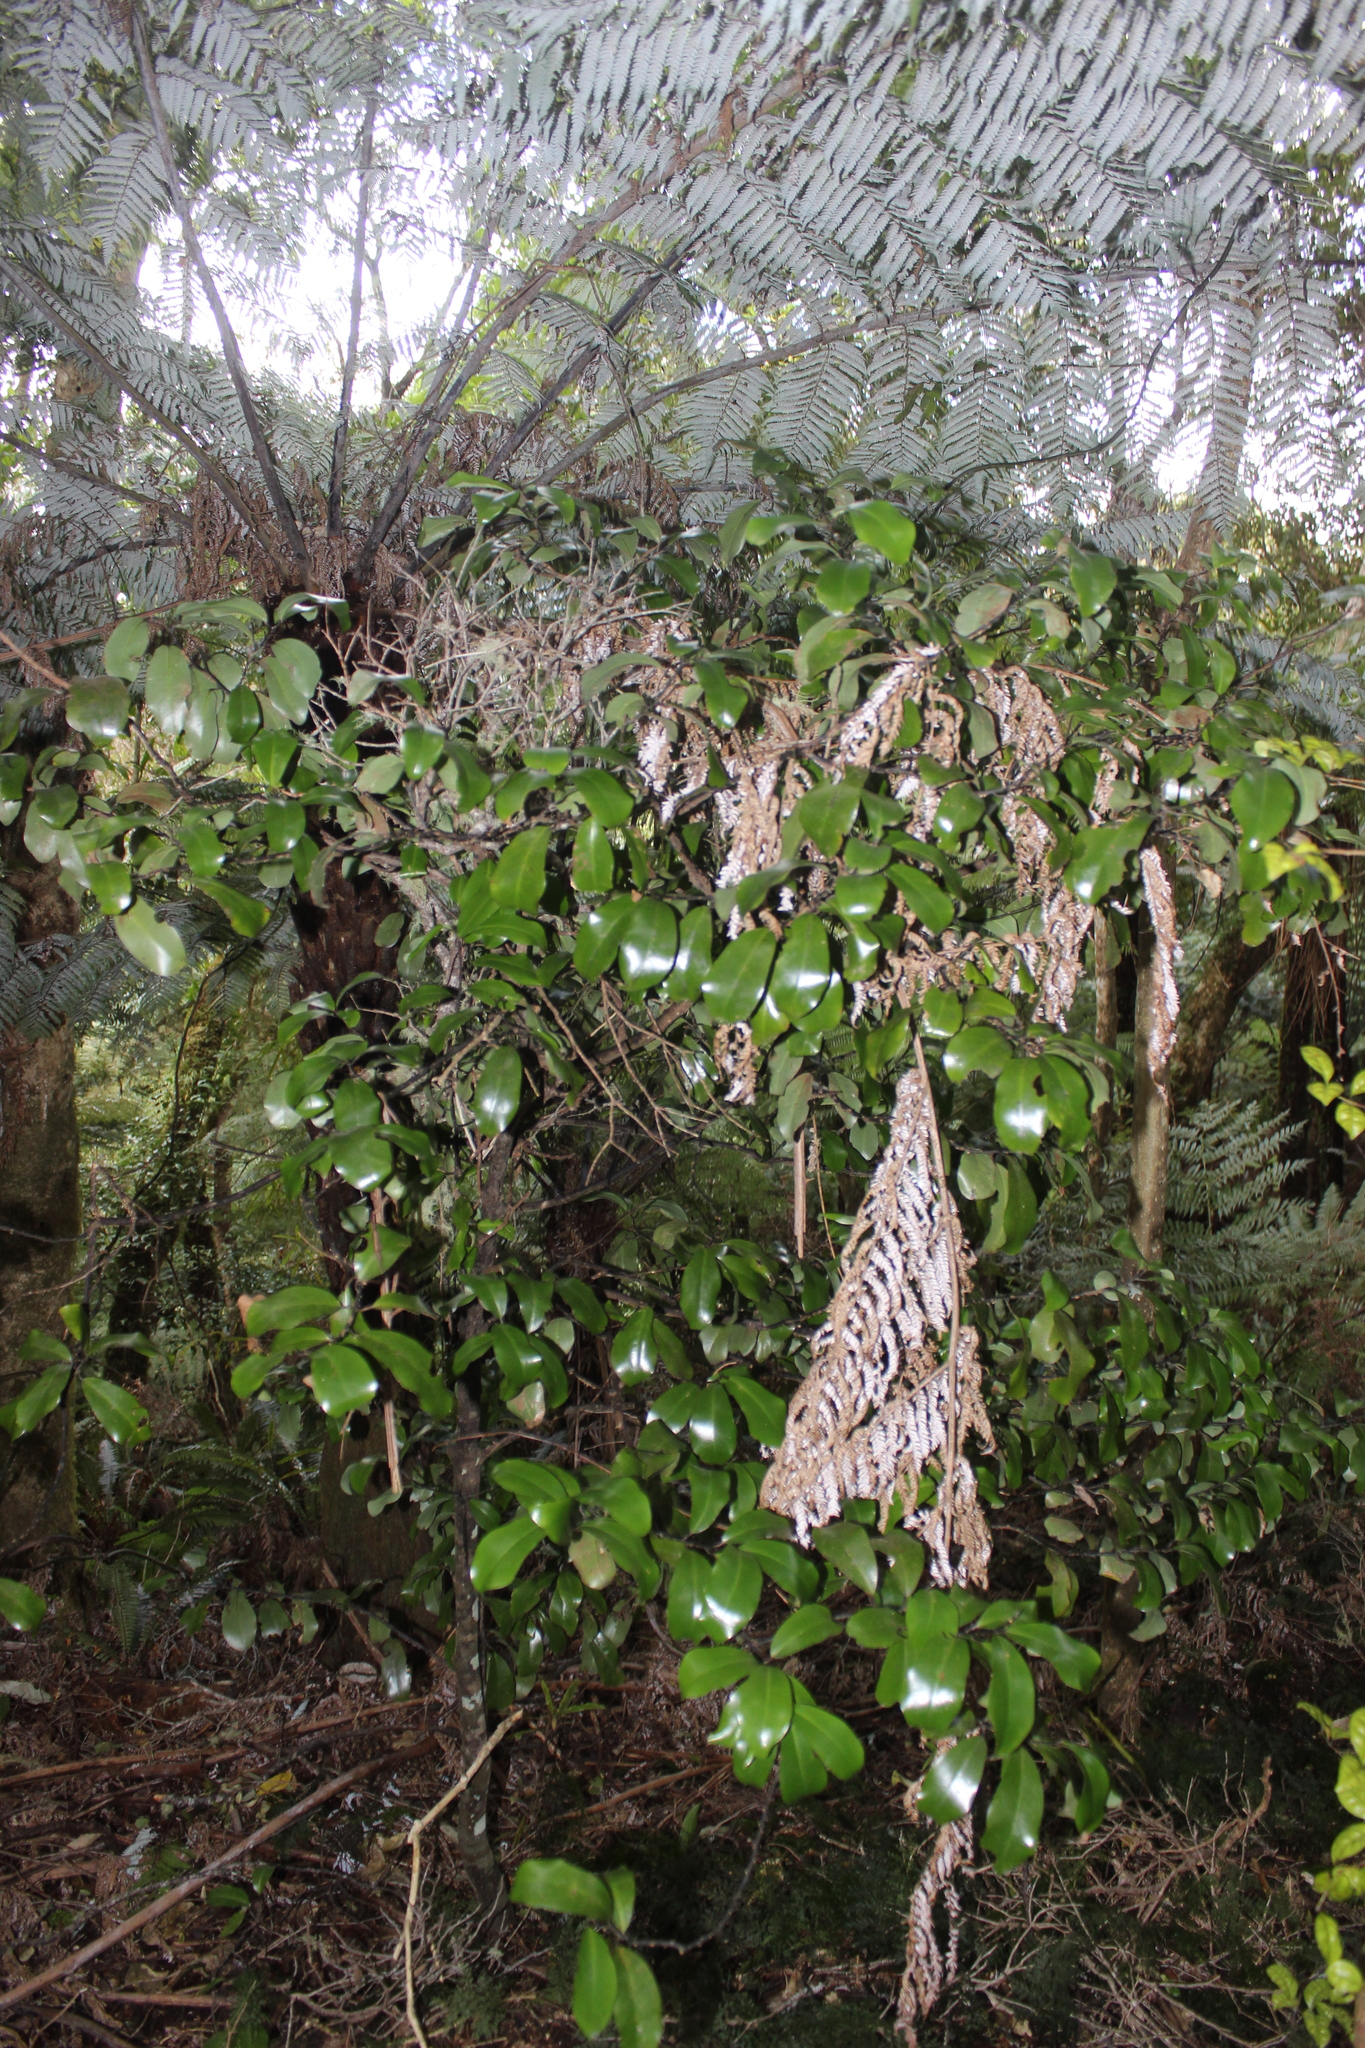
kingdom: Plantae
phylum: Tracheophyta
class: Magnoliopsida
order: Canellales
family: Winteraceae
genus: Pseudowintera
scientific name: Pseudowintera axillaris
